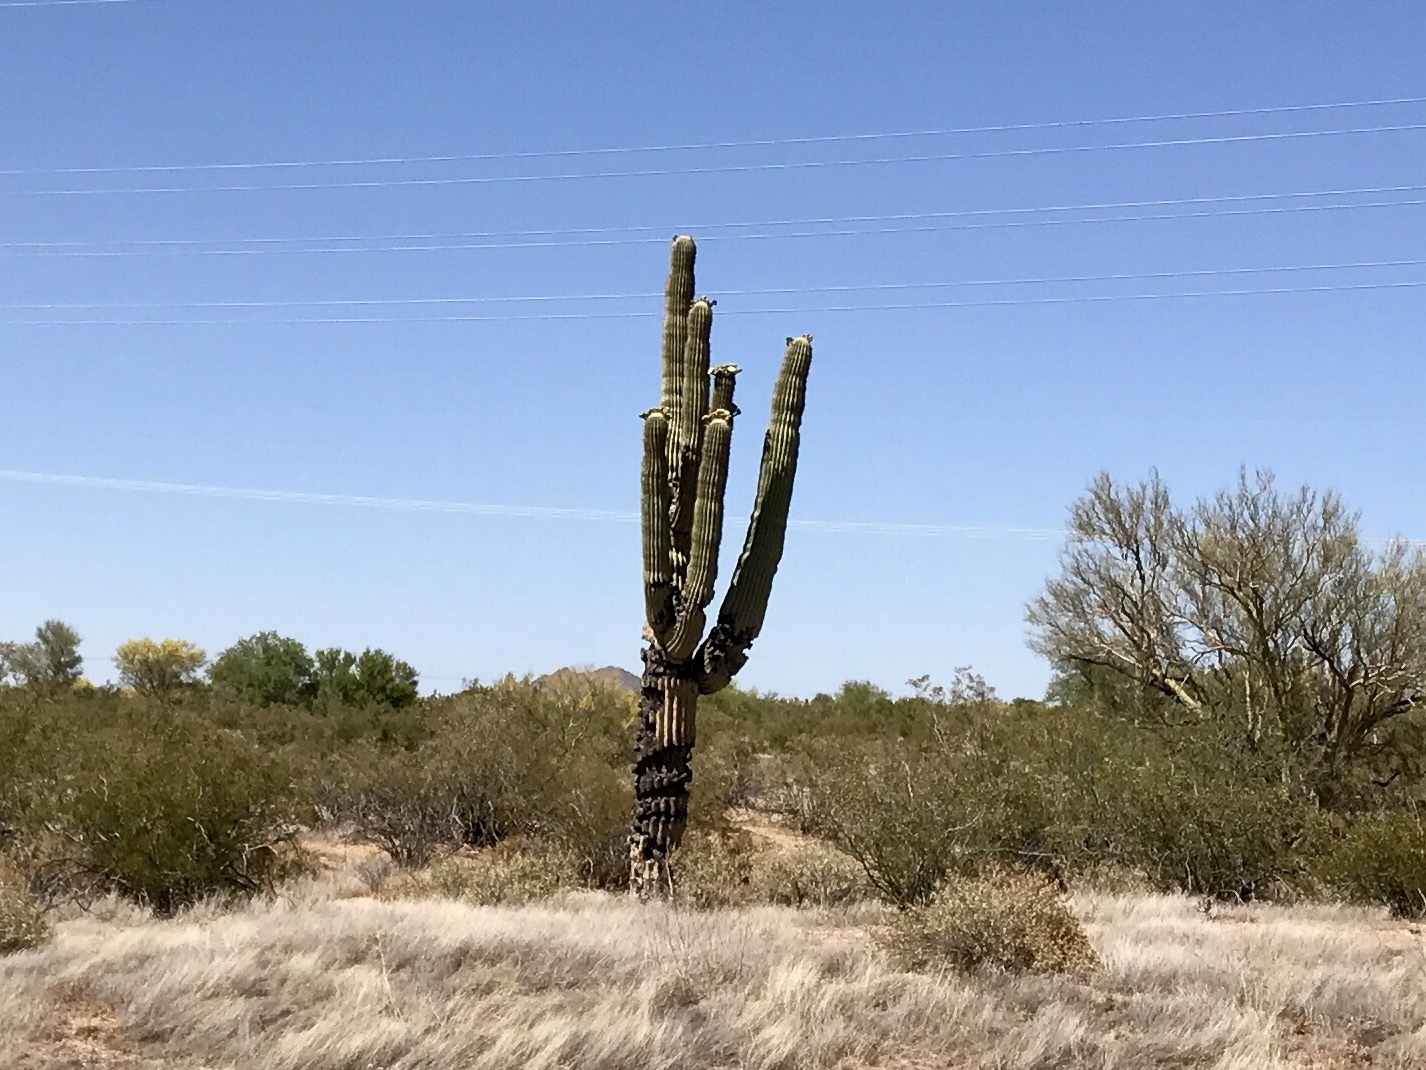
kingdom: Plantae
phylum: Tracheophyta
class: Magnoliopsida
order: Caryophyllales
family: Cactaceae
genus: Carnegiea
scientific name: Carnegiea gigantea
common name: Saguaro
